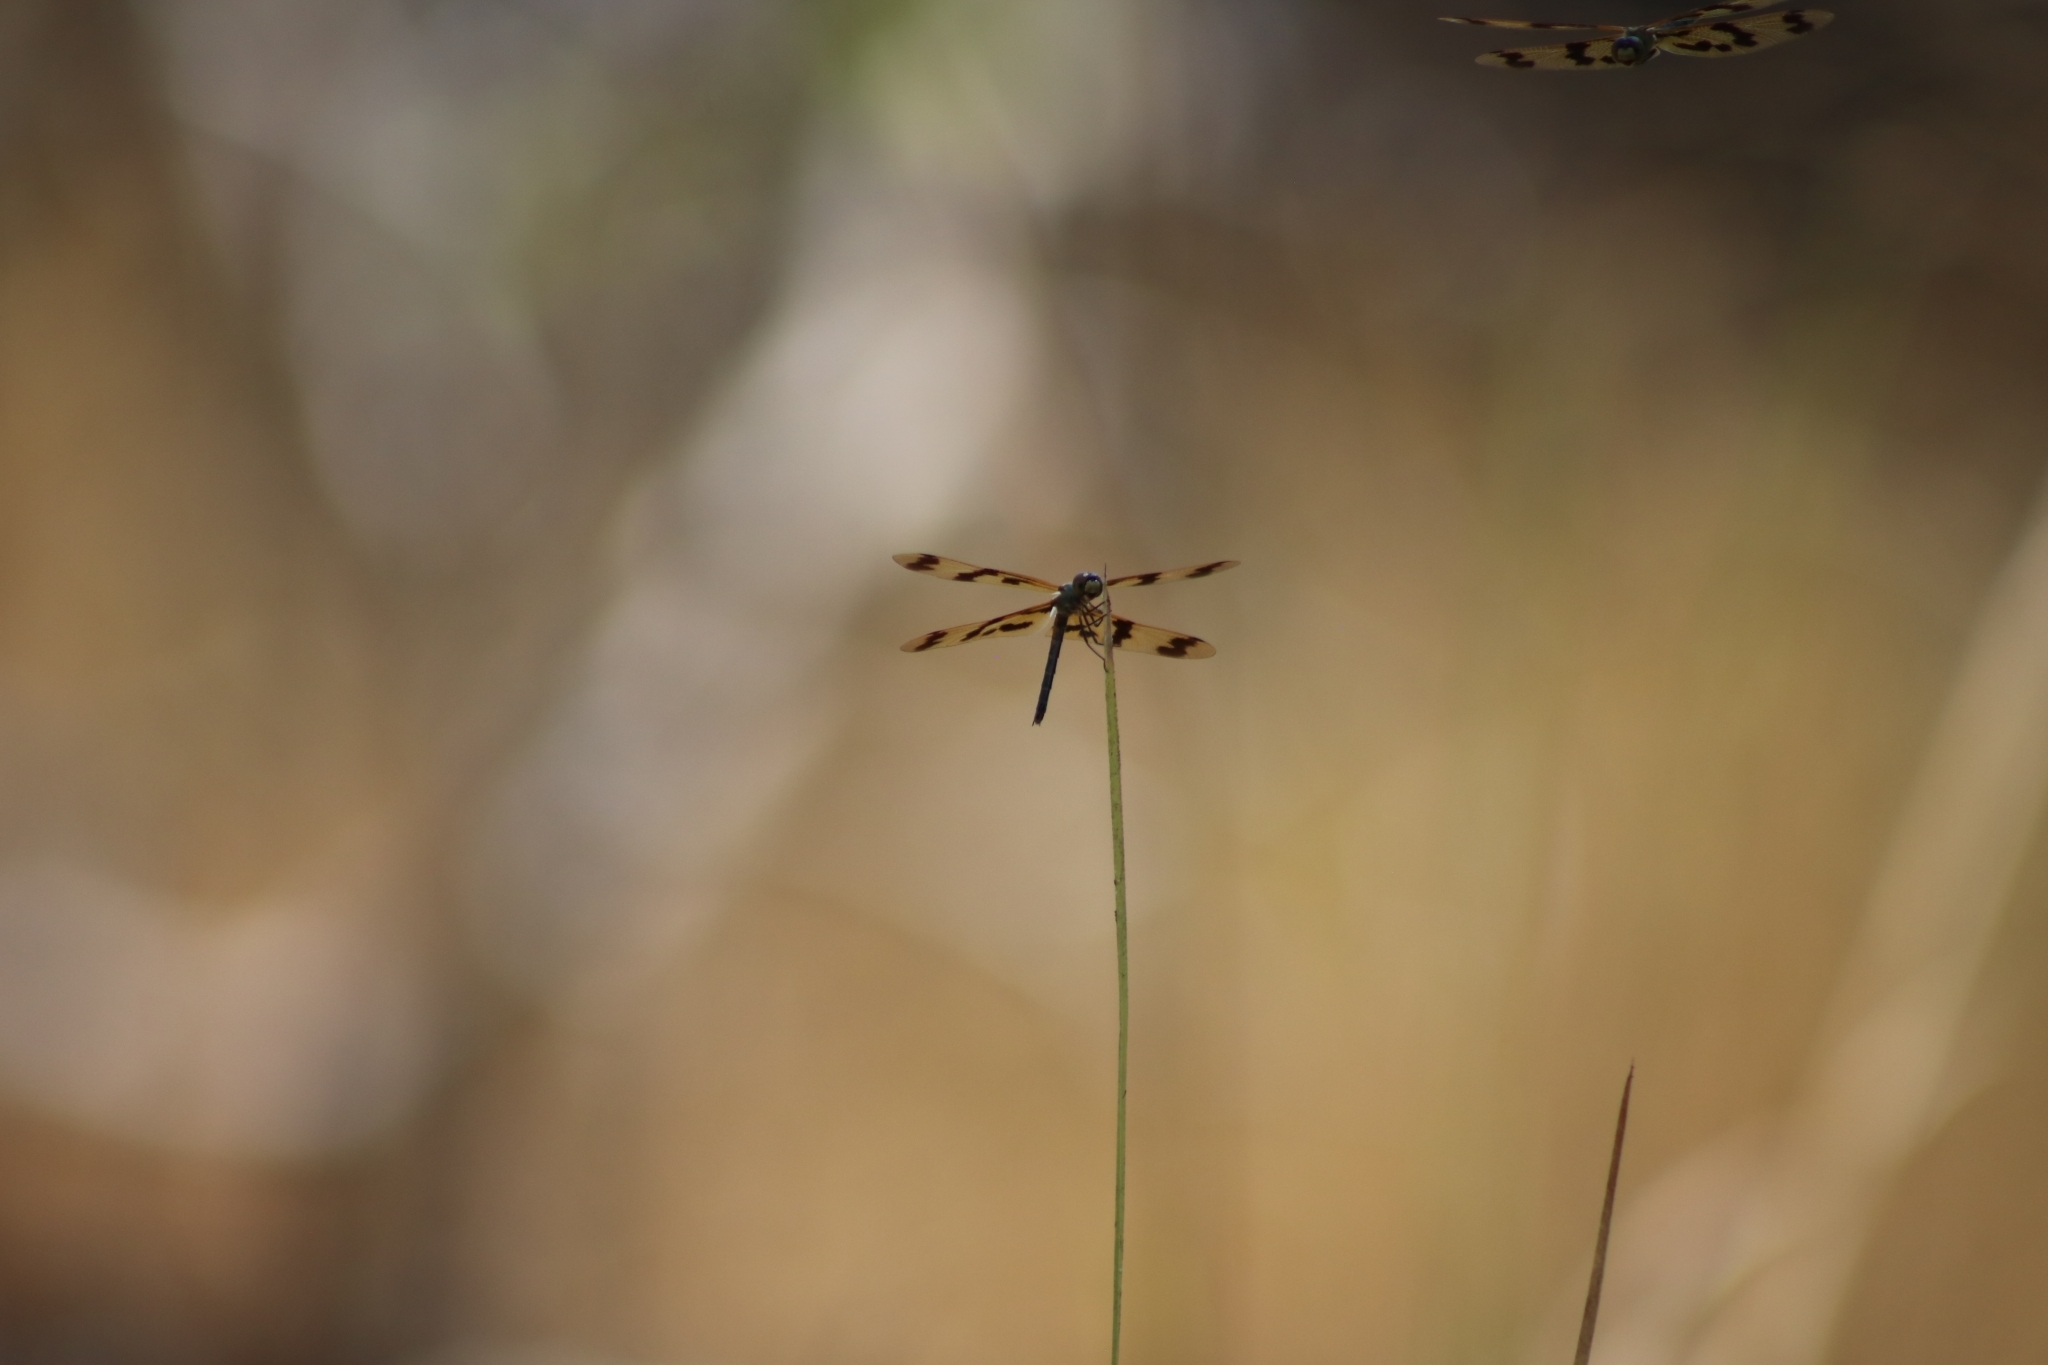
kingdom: Animalia
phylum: Arthropoda
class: Insecta
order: Odonata
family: Libellulidae
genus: Rhyothemis
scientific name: Rhyothemis graphiptera
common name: Graphic flutterer
